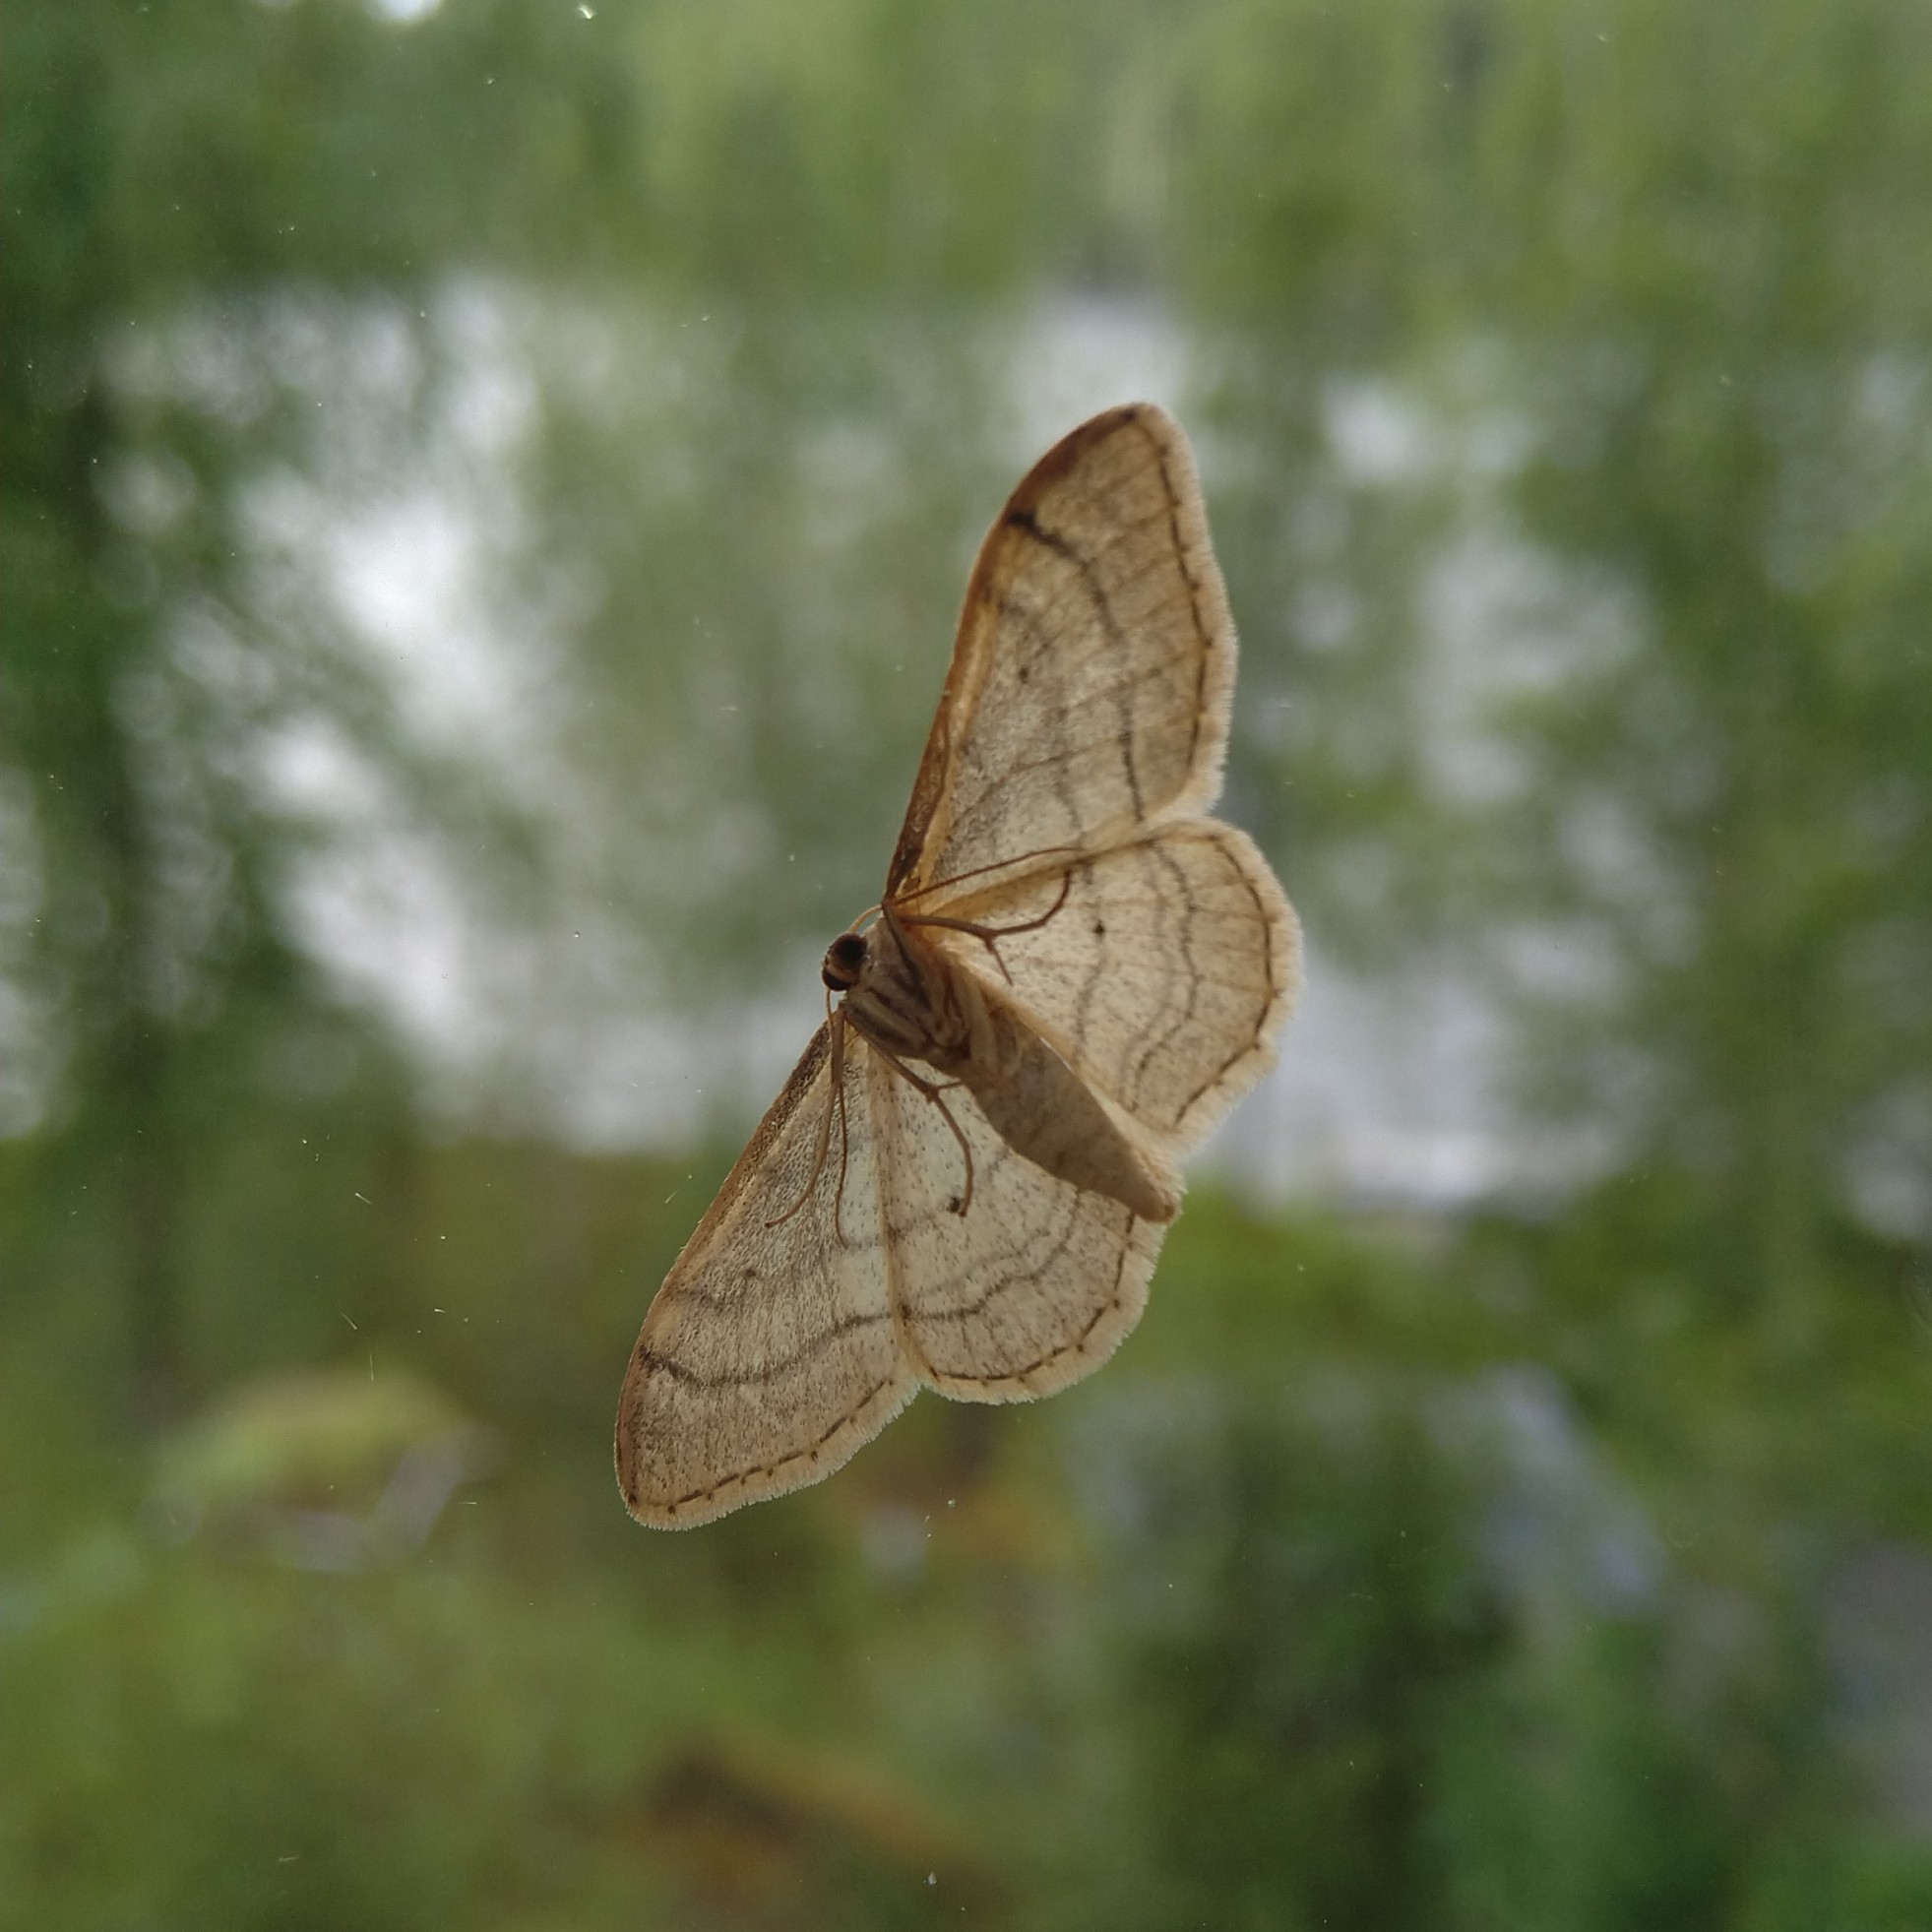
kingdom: Animalia
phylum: Arthropoda
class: Insecta
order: Lepidoptera
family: Geometridae
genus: Idaea
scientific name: Idaea aversata
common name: Riband wave
